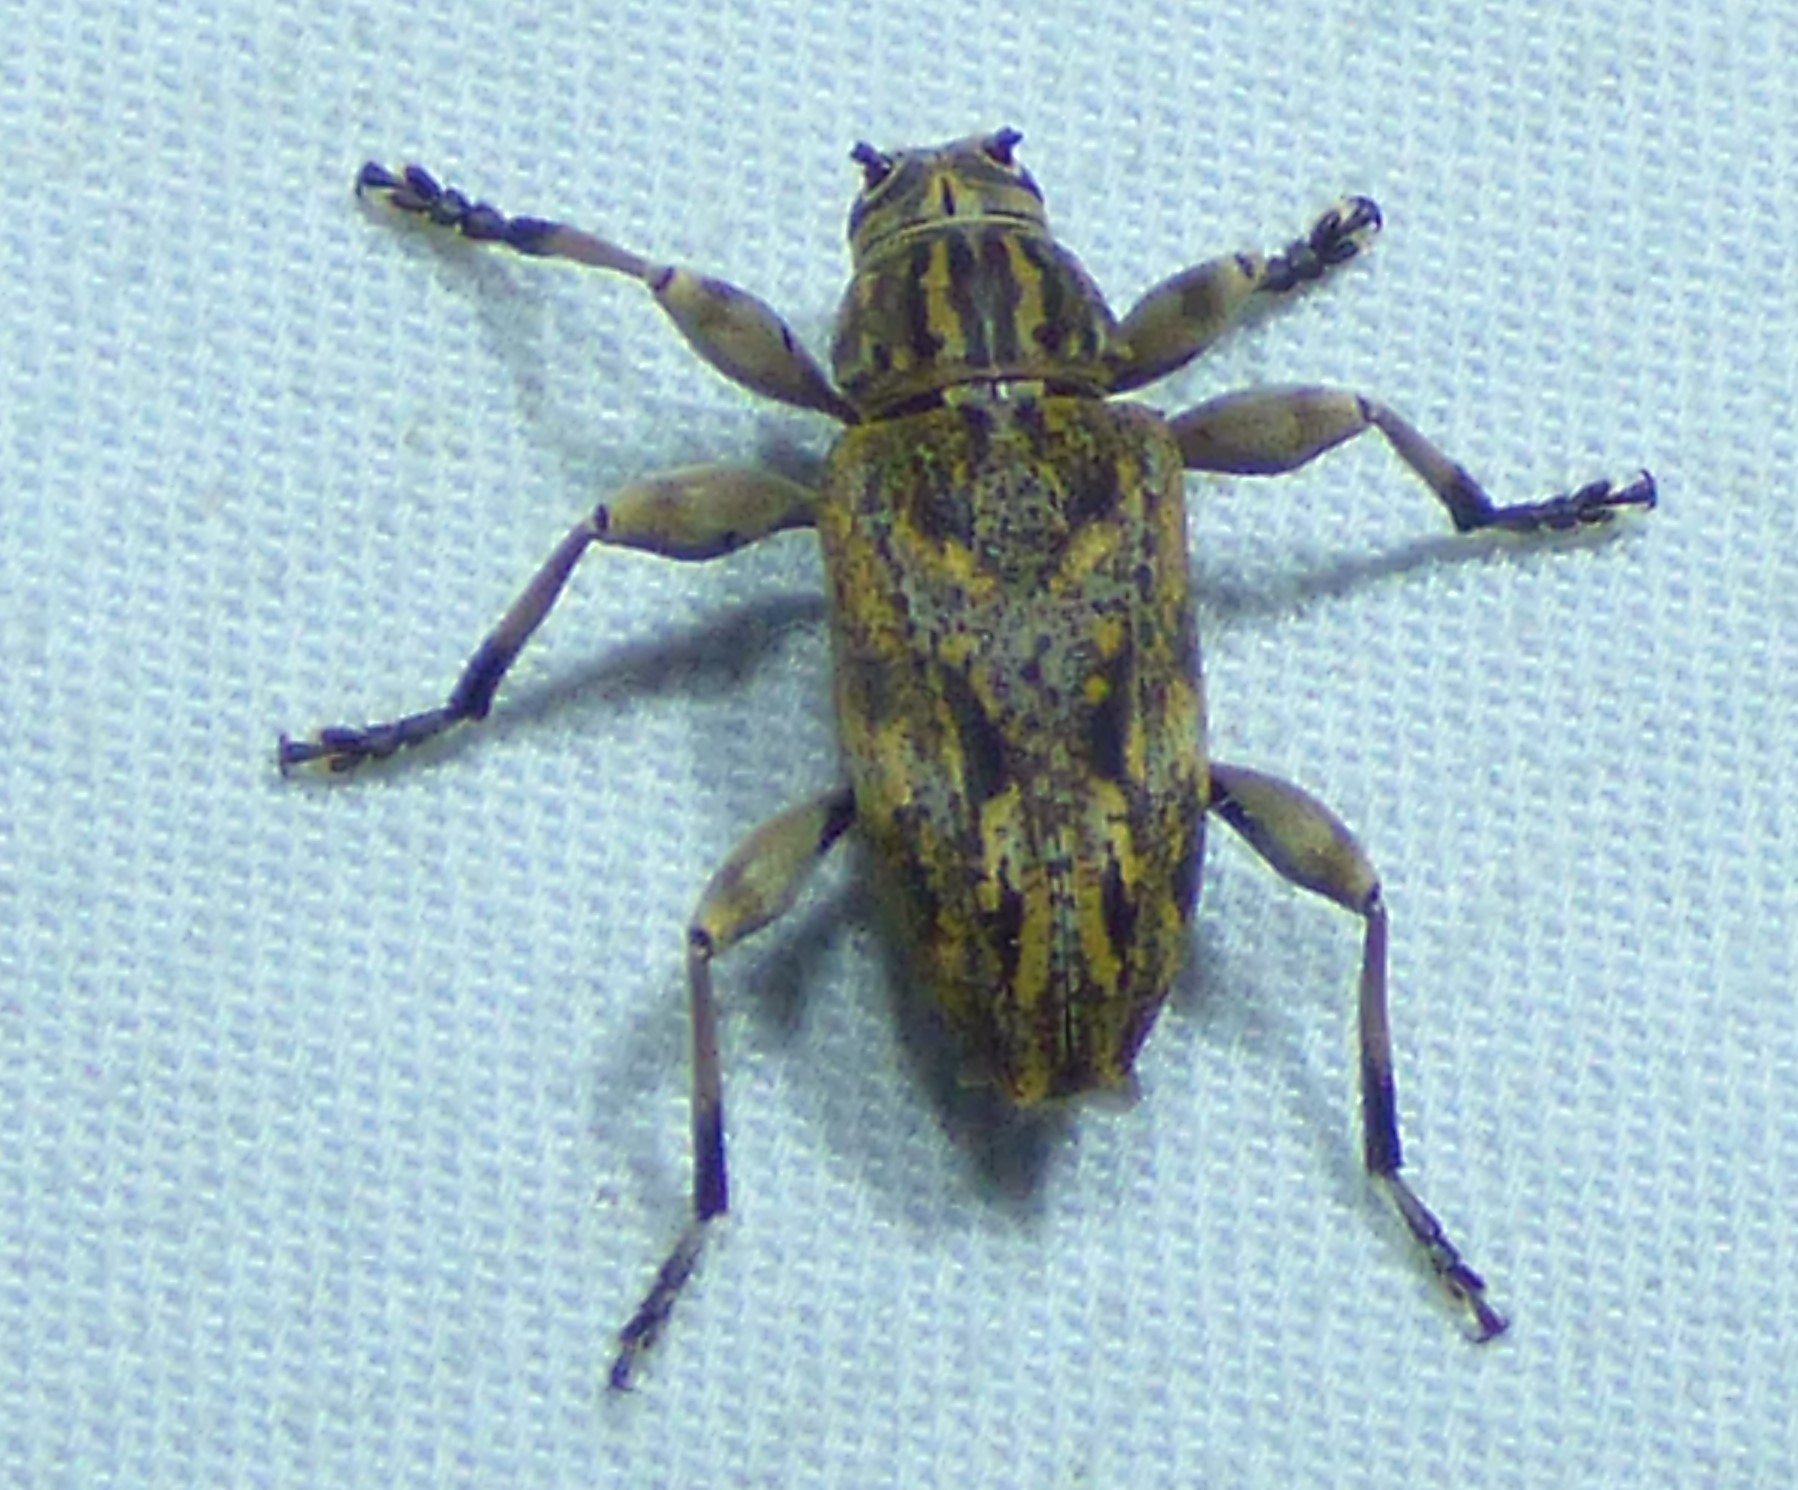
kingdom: Animalia
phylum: Arthropoda
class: Insecta
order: Coleoptera
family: Cerambycidae
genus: Atrypanius
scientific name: Atrypanius haldemani
